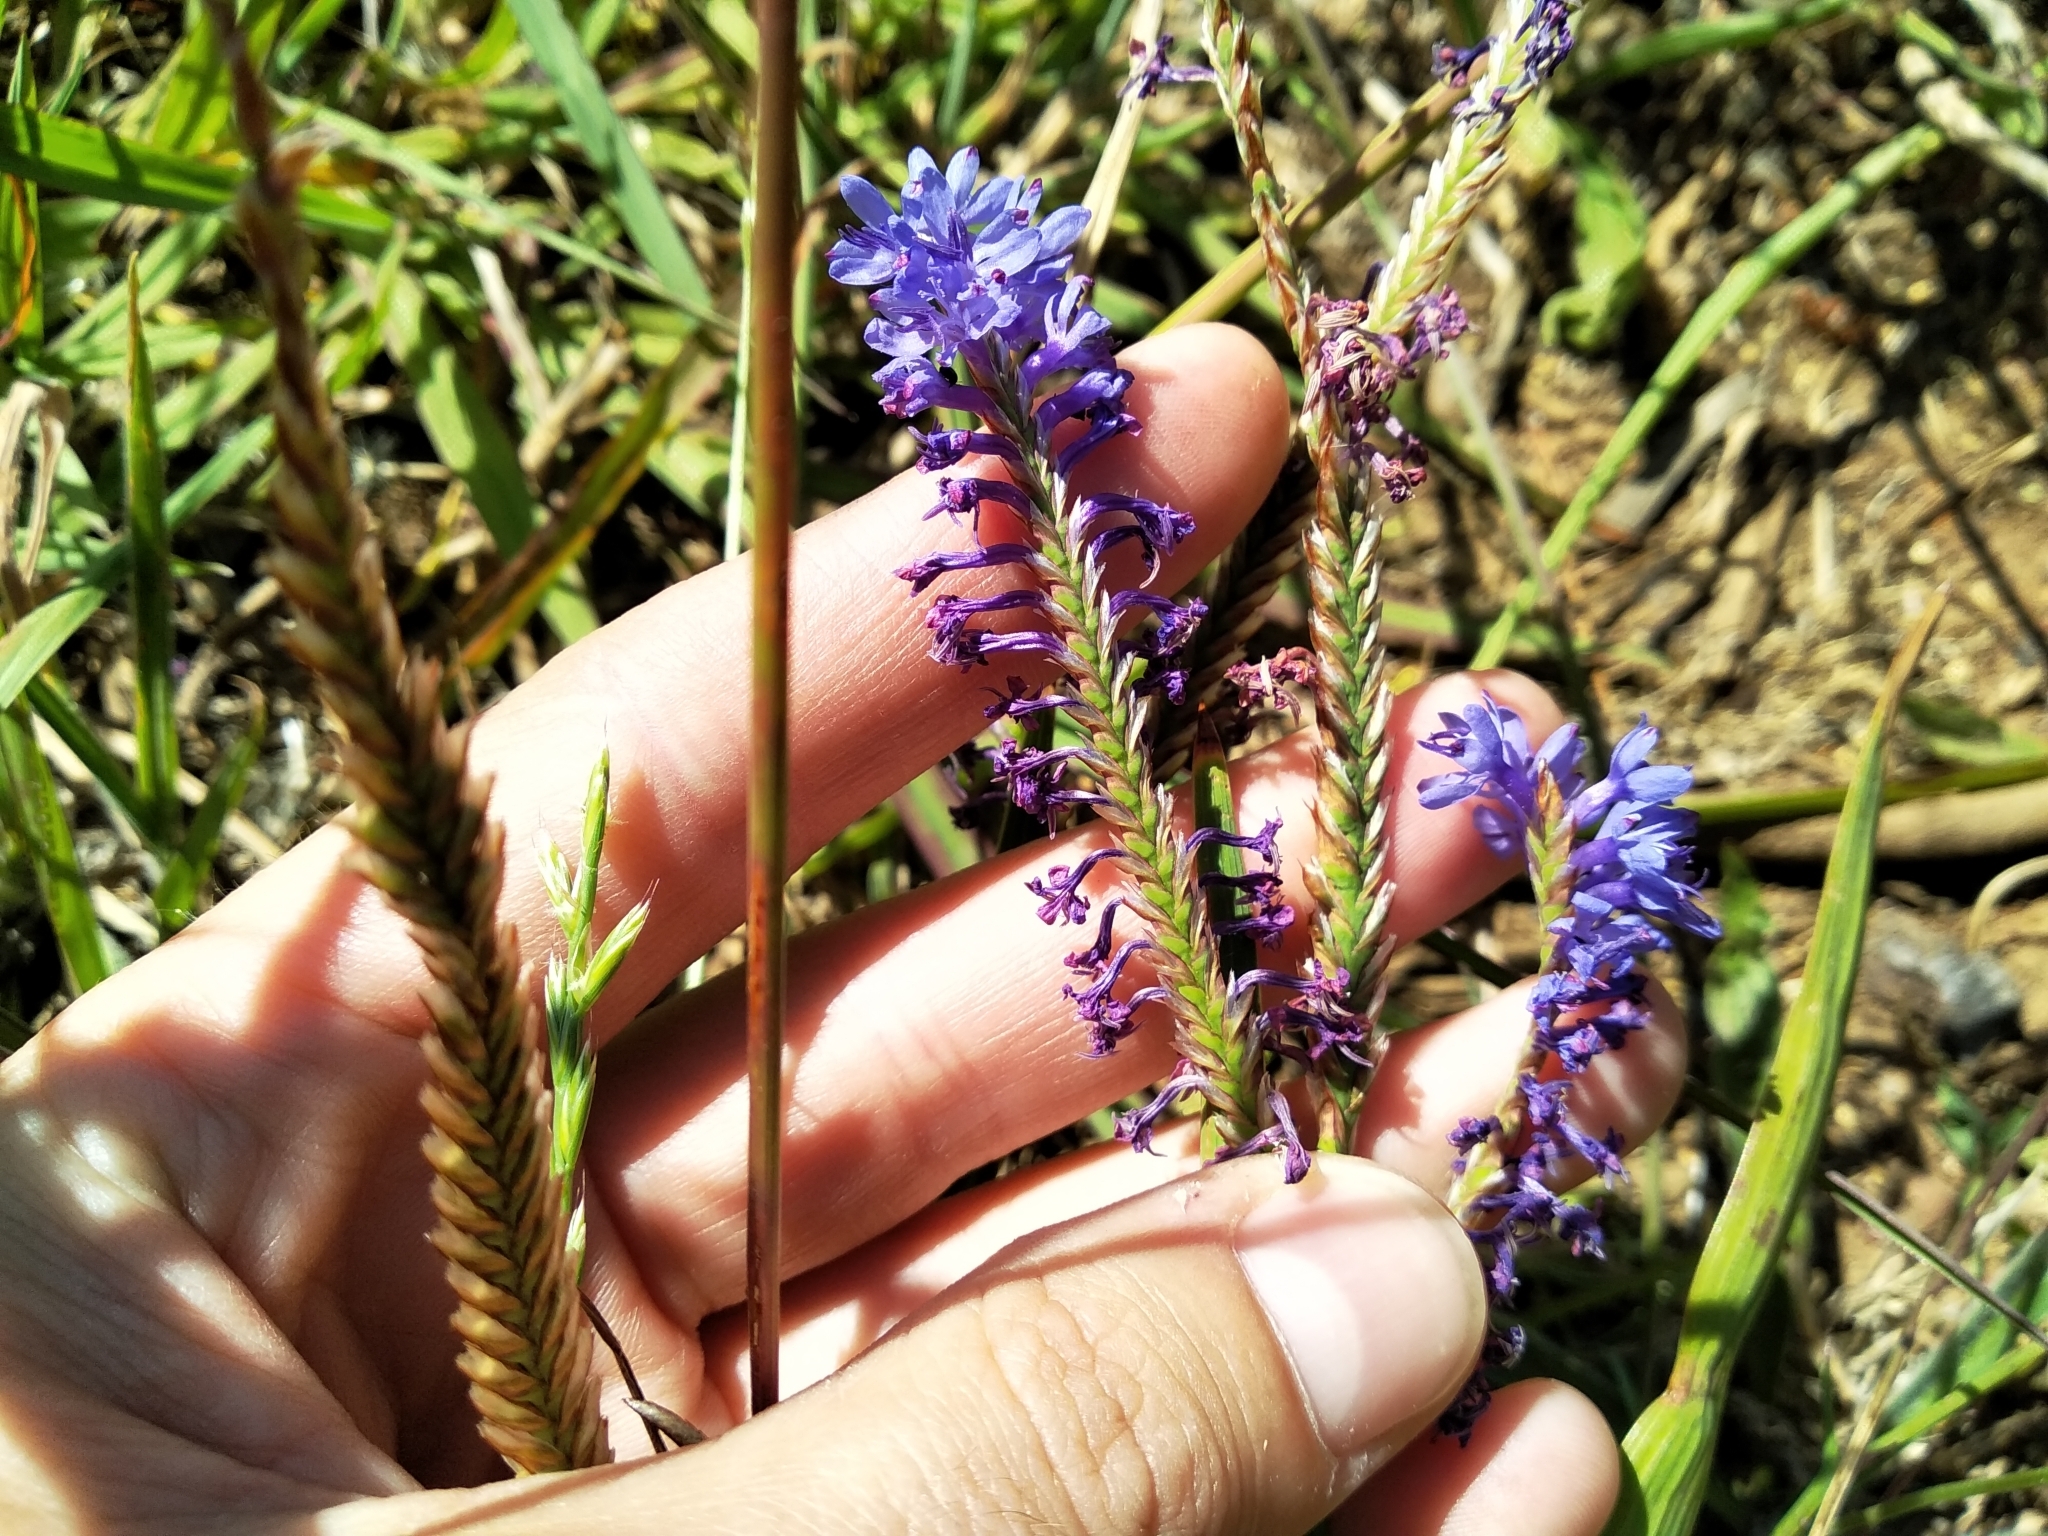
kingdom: Plantae
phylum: Tracheophyta
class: Liliopsida
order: Asparagales
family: Iridaceae
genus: Micranthus
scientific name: Micranthus alopecuroides
